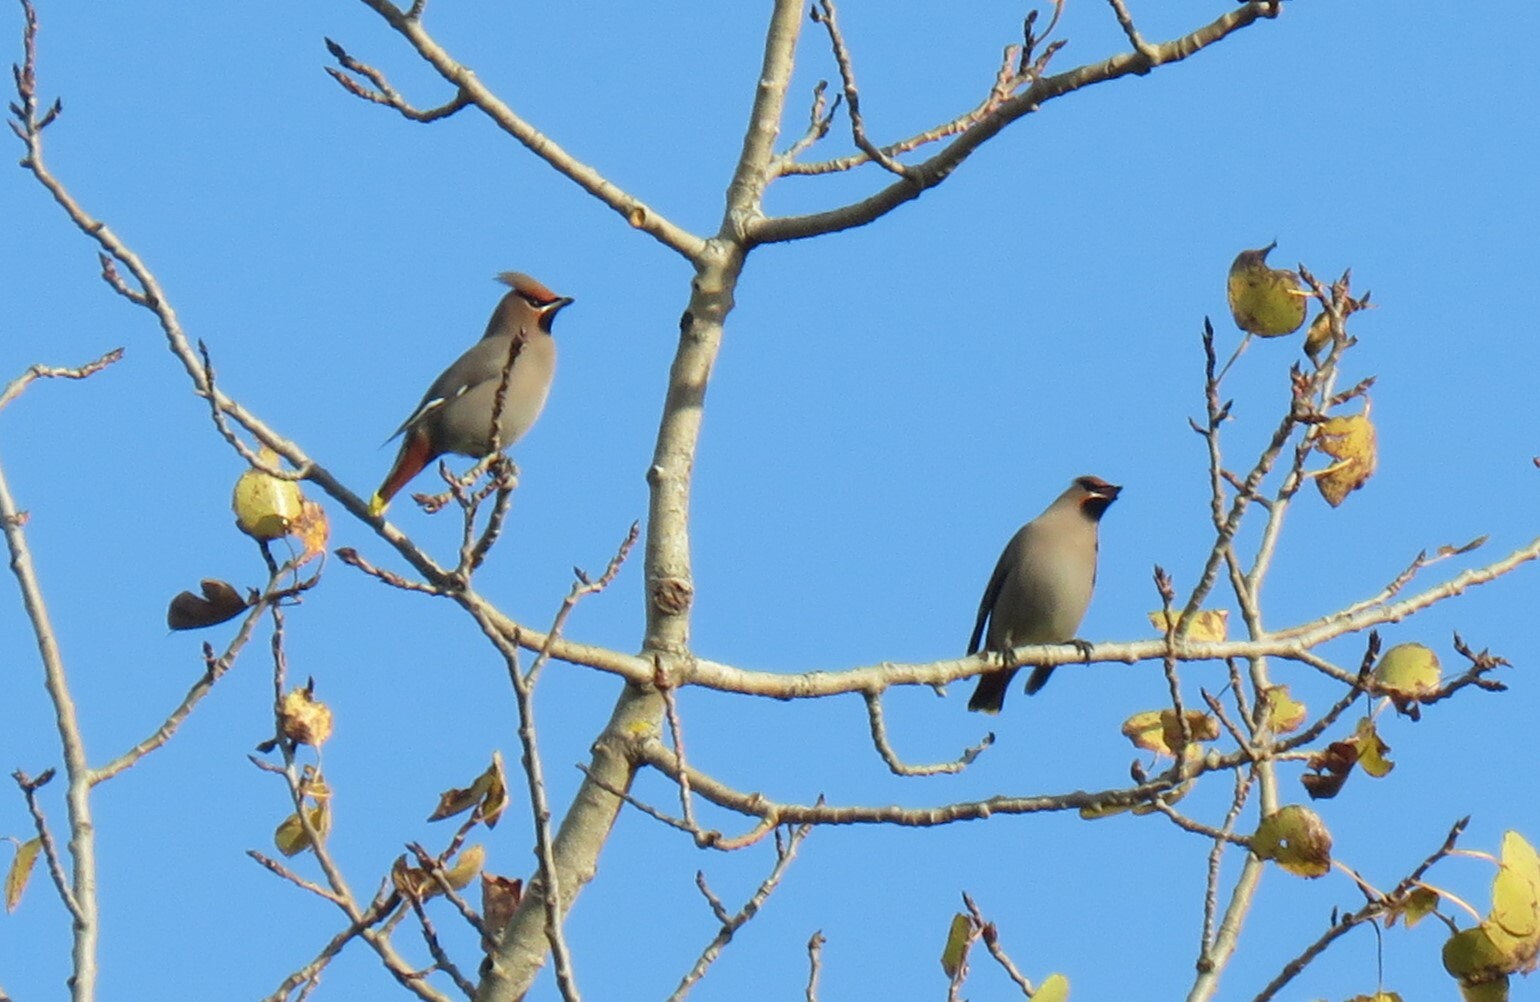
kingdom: Animalia
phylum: Chordata
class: Aves
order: Passeriformes
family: Bombycillidae
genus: Bombycilla
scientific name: Bombycilla garrulus
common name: Bohemian waxwing
